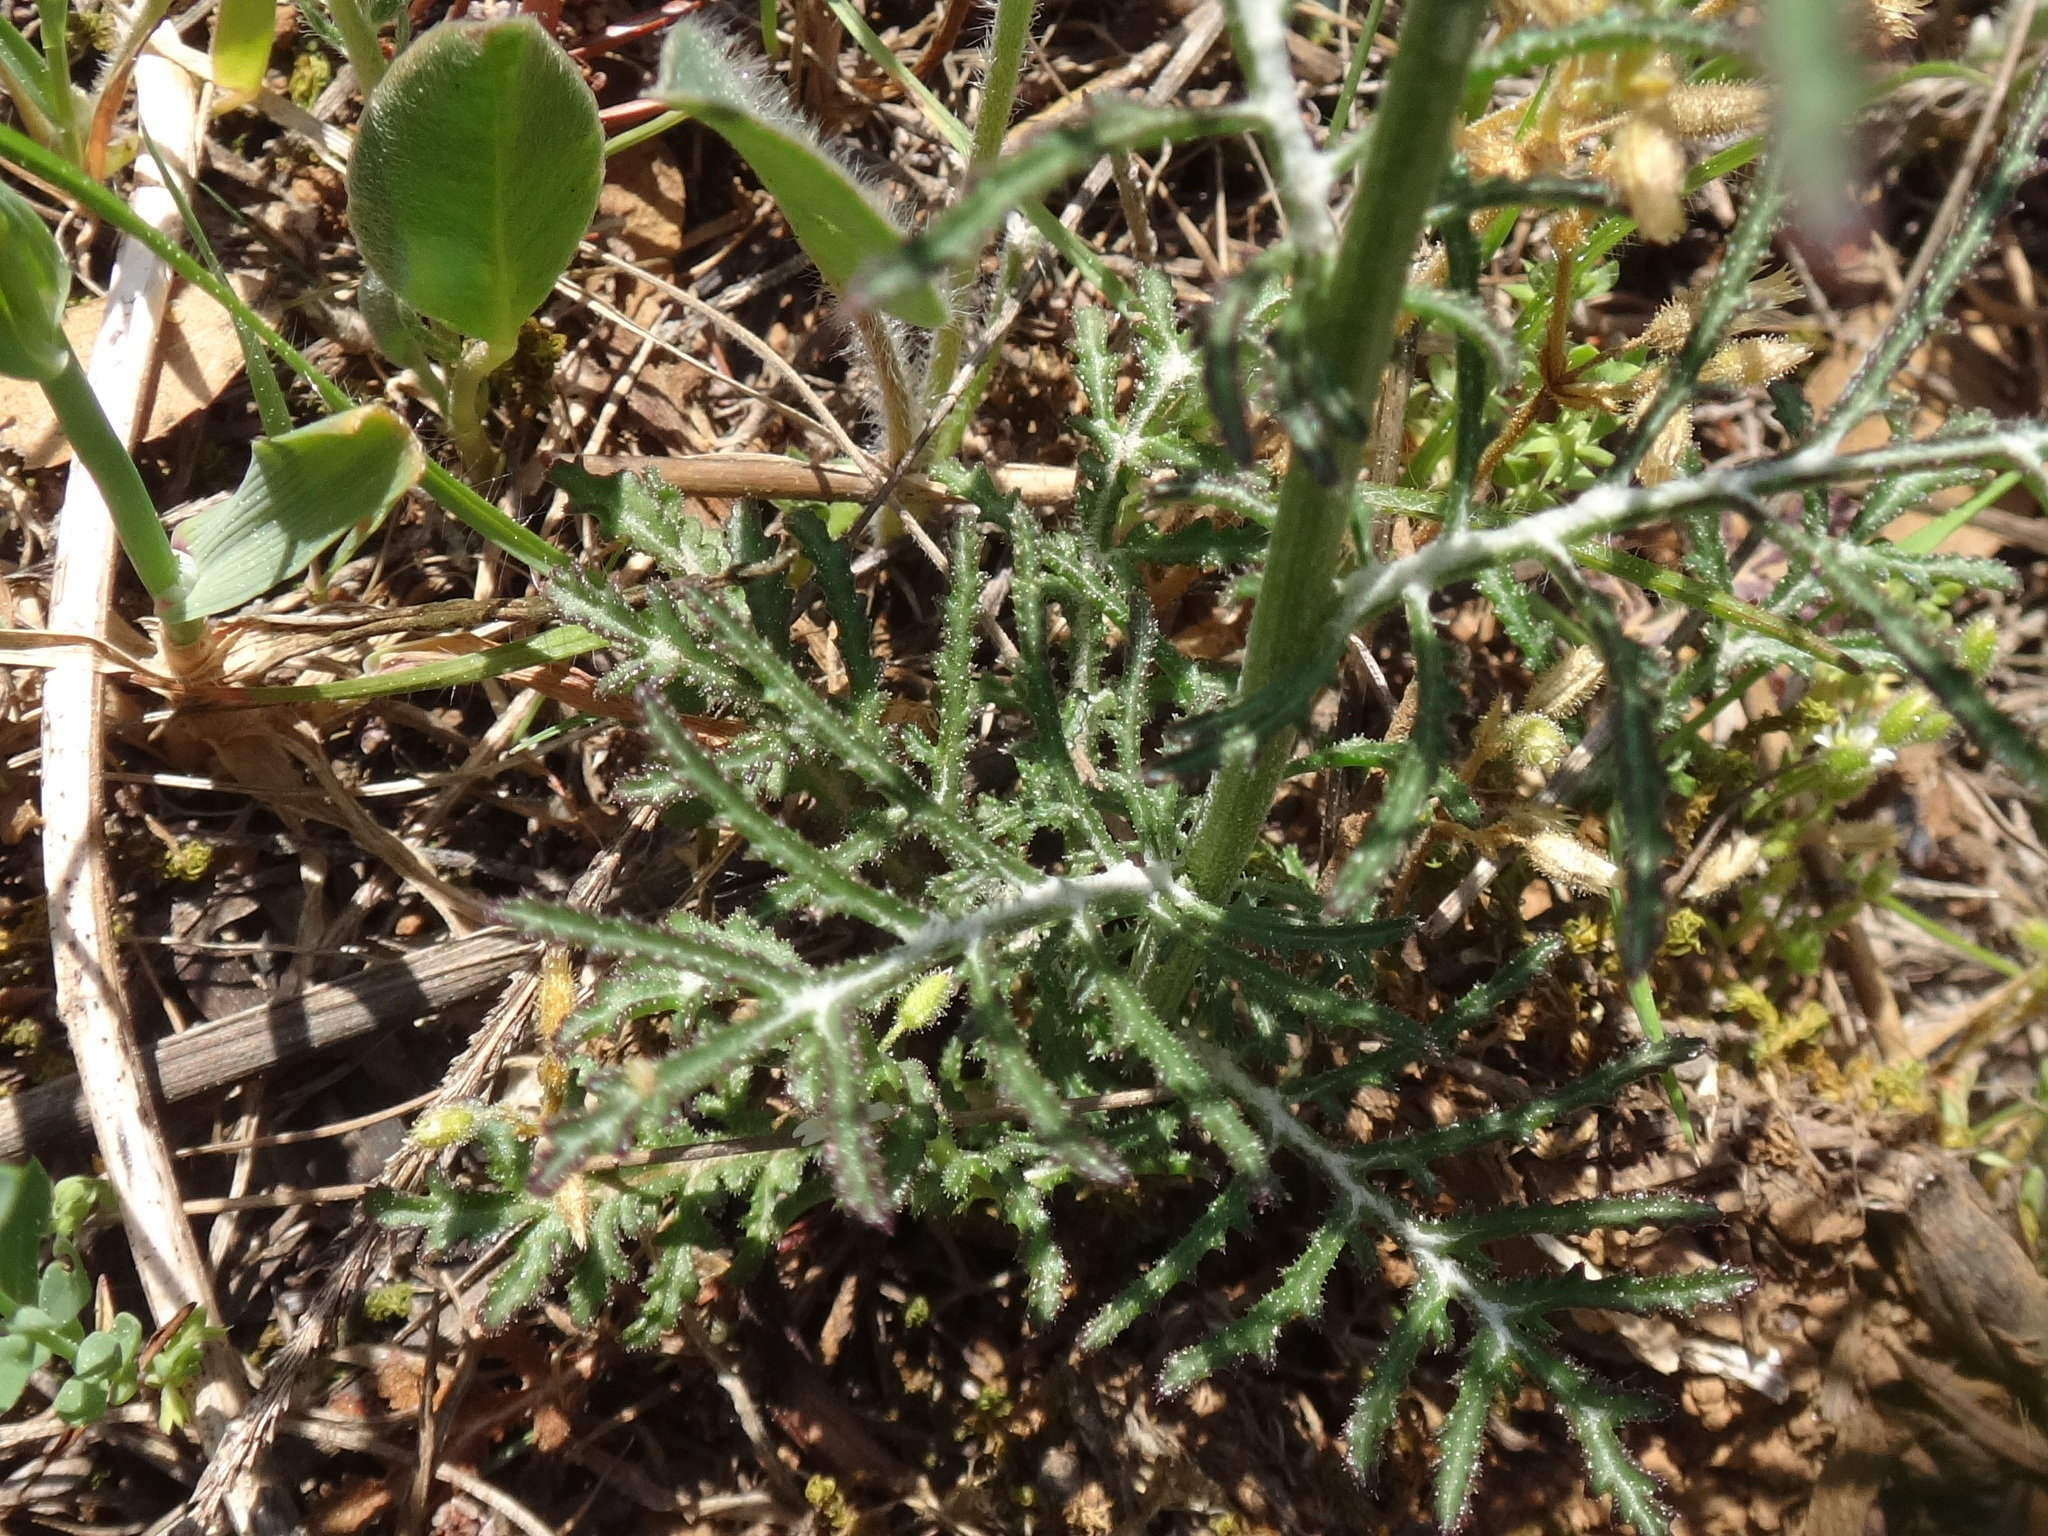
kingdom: Plantae
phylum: Tracheophyta
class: Magnoliopsida
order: Asterales
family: Asteraceae
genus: Crupina
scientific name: Crupina crupinastrum
